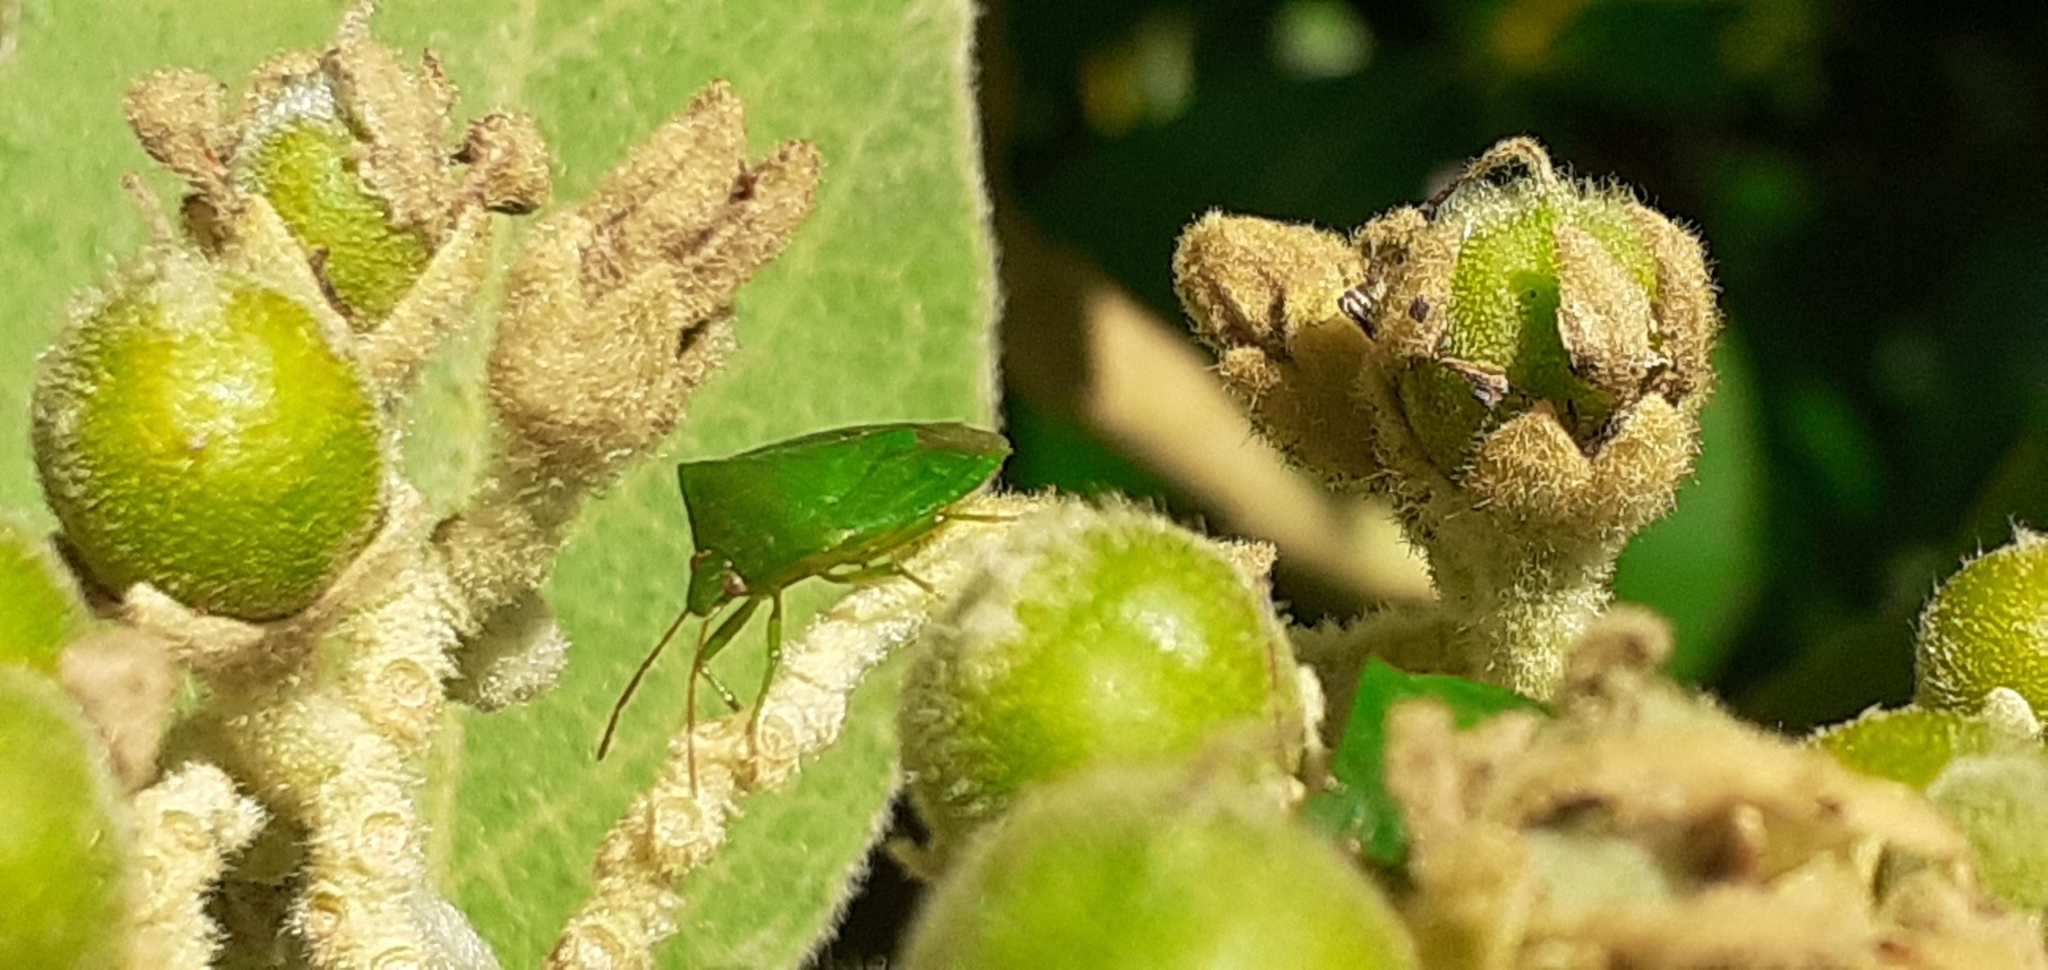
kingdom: Animalia
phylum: Arthropoda
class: Insecta
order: Hemiptera
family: Pentatomidae
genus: Cuspicona
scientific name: Cuspicona simplex
